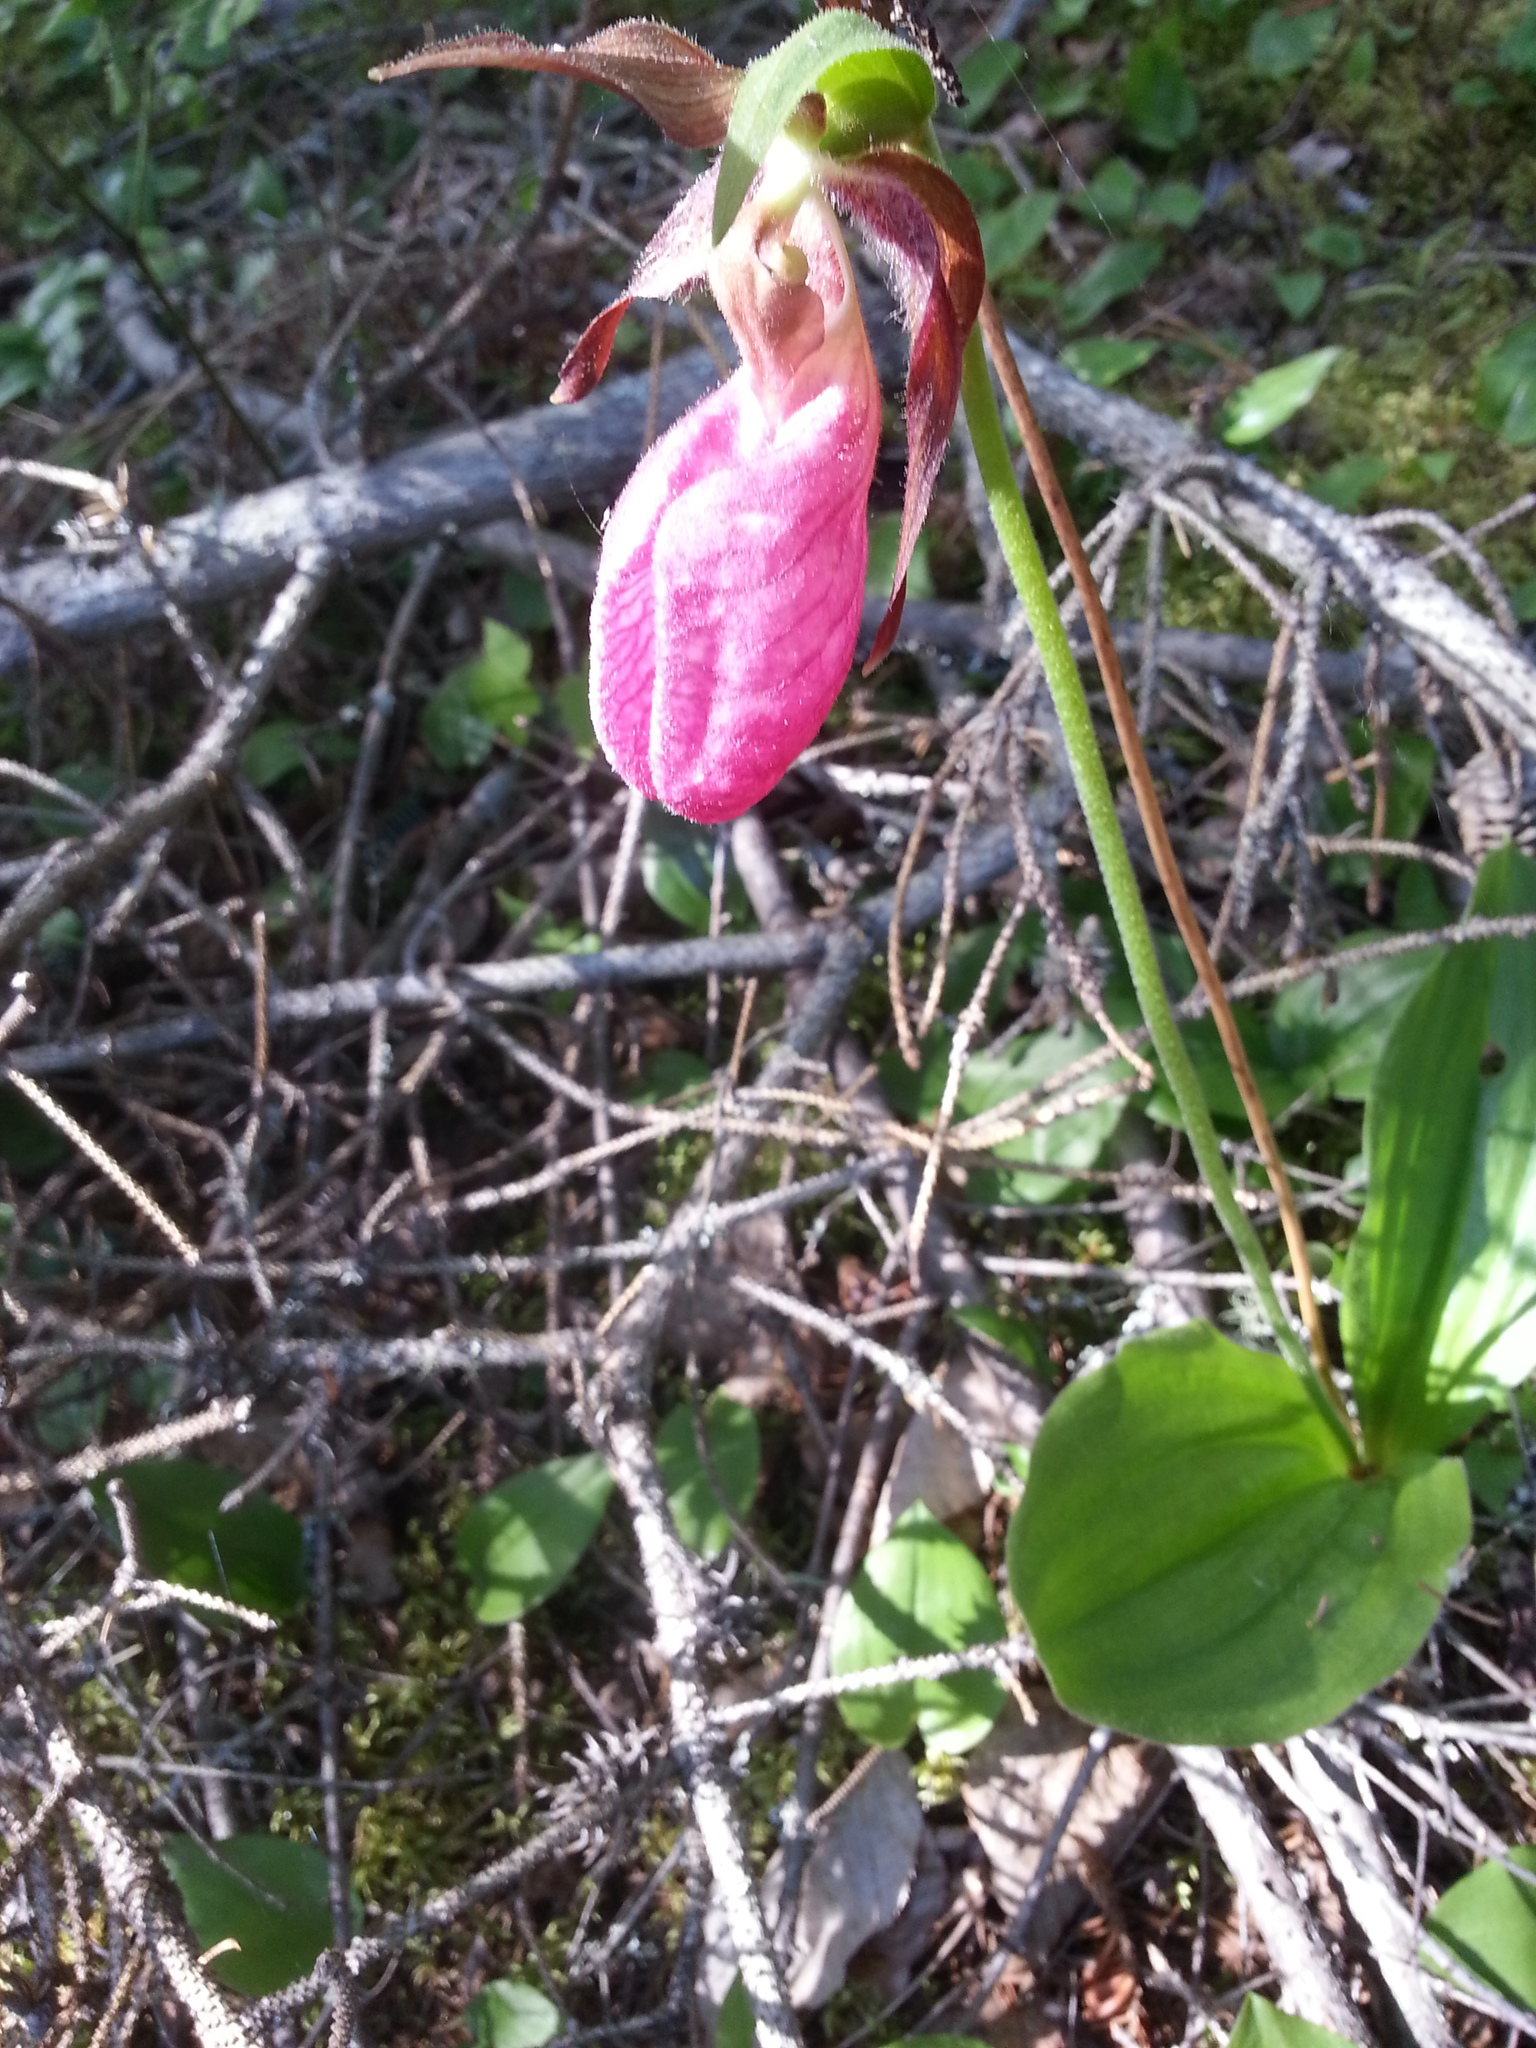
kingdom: Plantae
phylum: Tracheophyta
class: Liliopsida
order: Asparagales
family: Orchidaceae
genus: Cypripedium
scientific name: Cypripedium acaule
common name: Pink lady's-slipper
